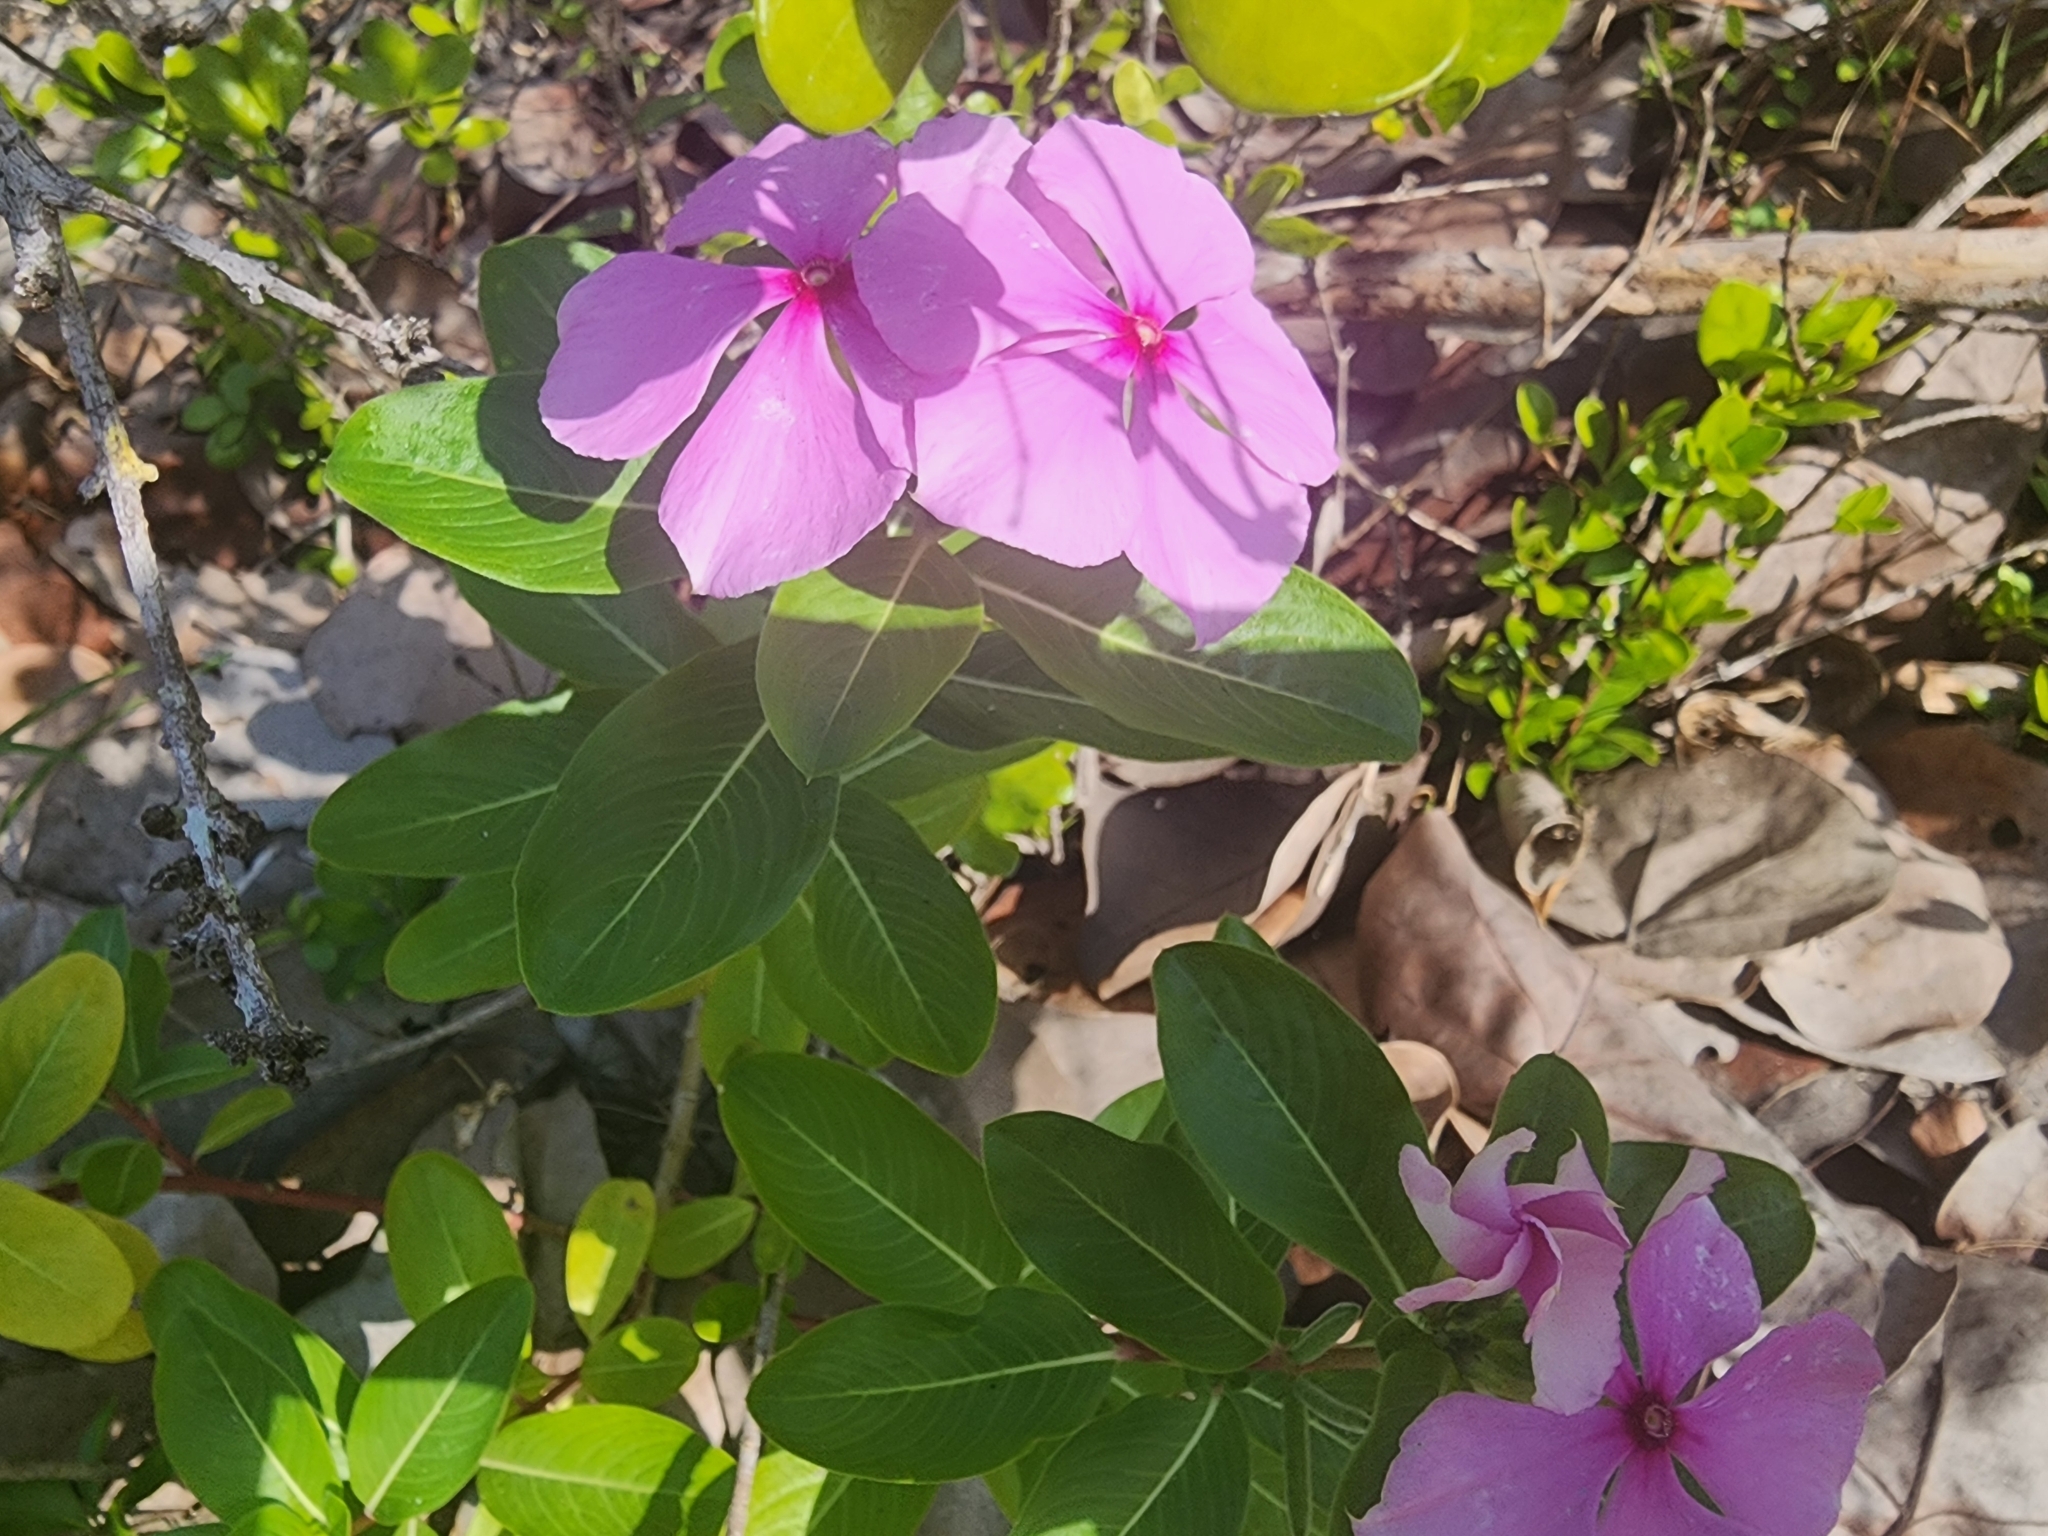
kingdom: Plantae
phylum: Tracheophyta
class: Magnoliopsida
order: Gentianales
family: Apocynaceae
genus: Catharanthus
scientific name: Catharanthus roseus
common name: Madagascar periwinkle
